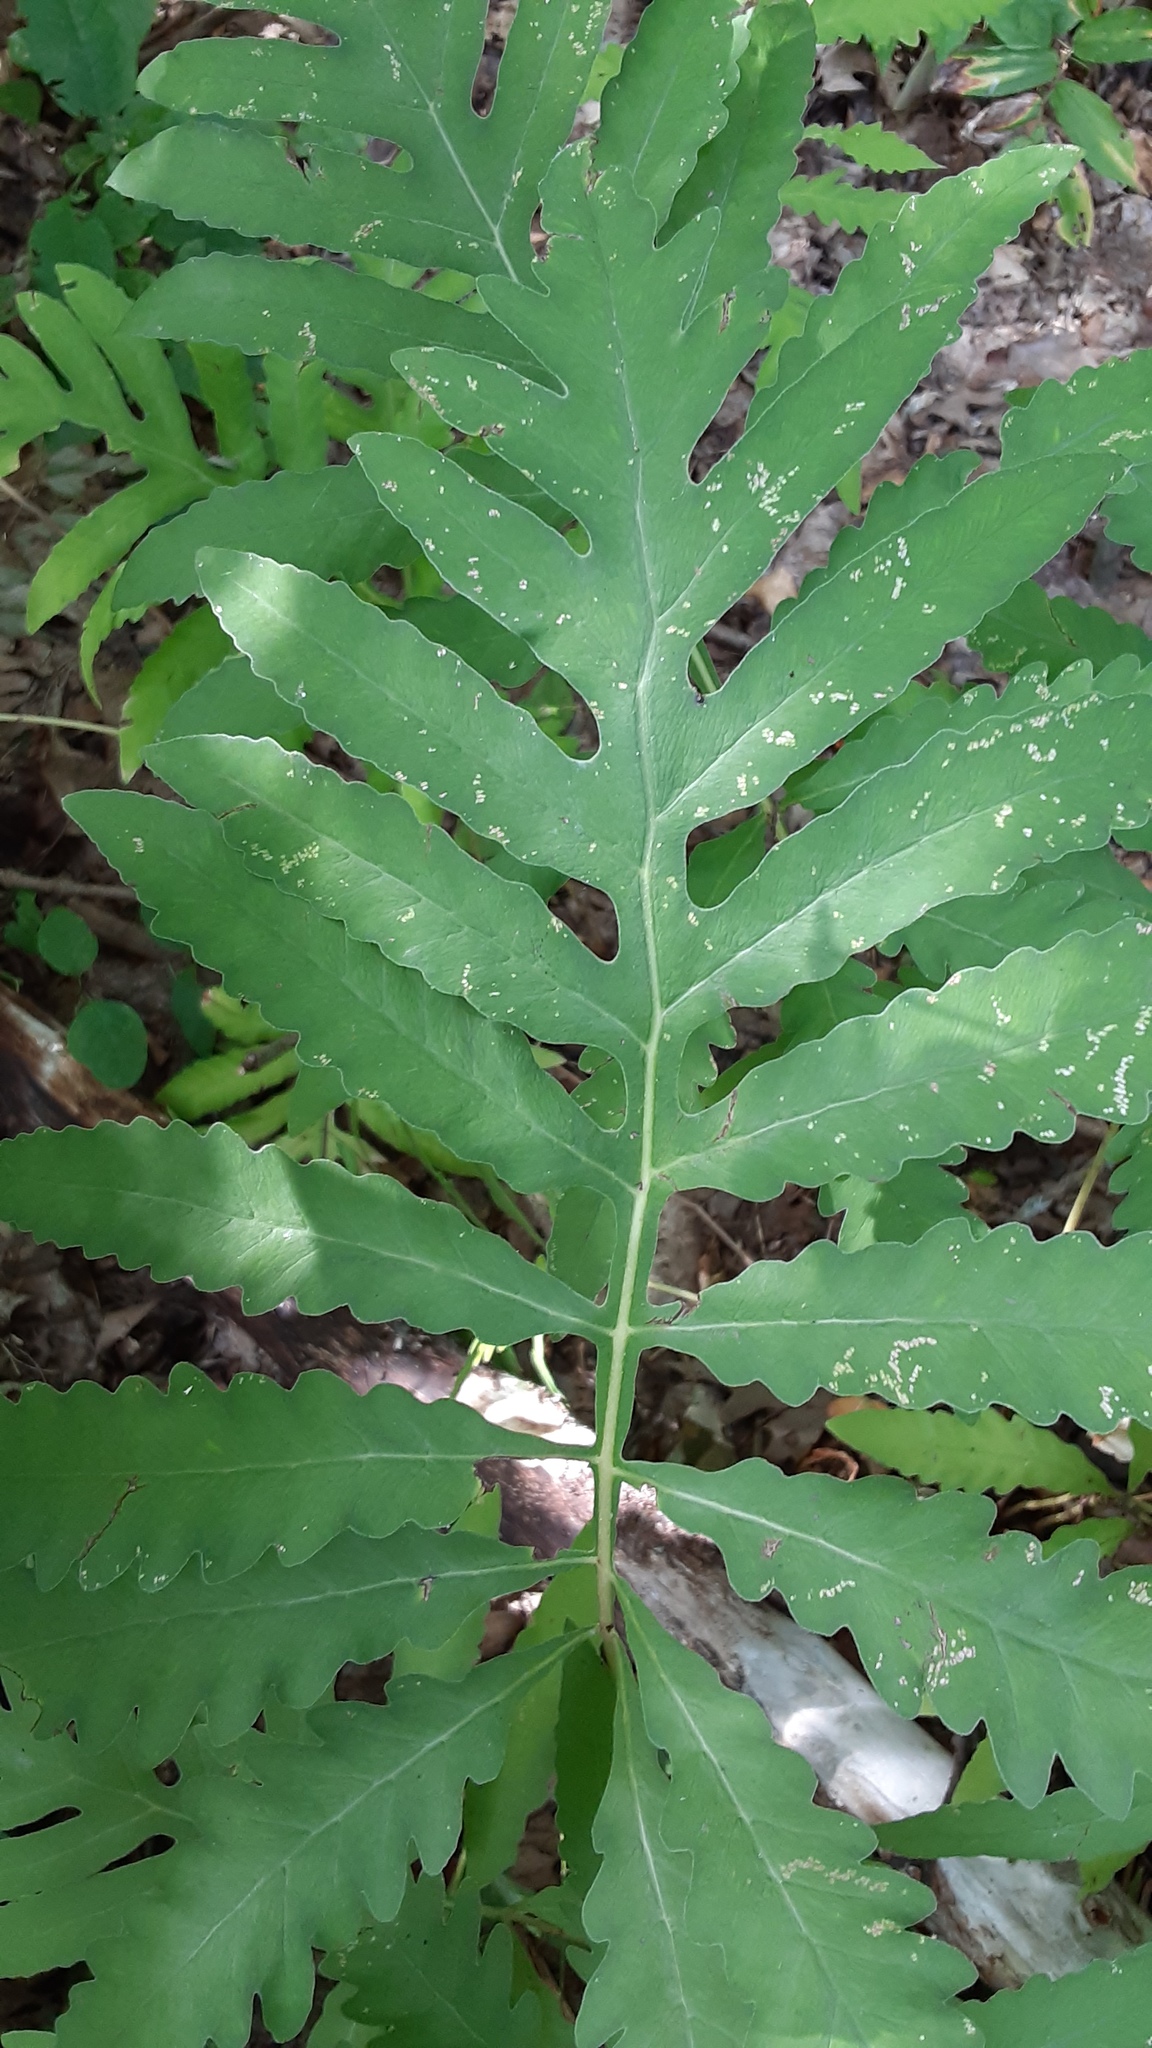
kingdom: Plantae
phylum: Tracheophyta
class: Polypodiopsida
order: Polypodiales
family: Onocleaceae
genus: Onoclea
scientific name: Onoclea sensibilis
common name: Sensitive fern
